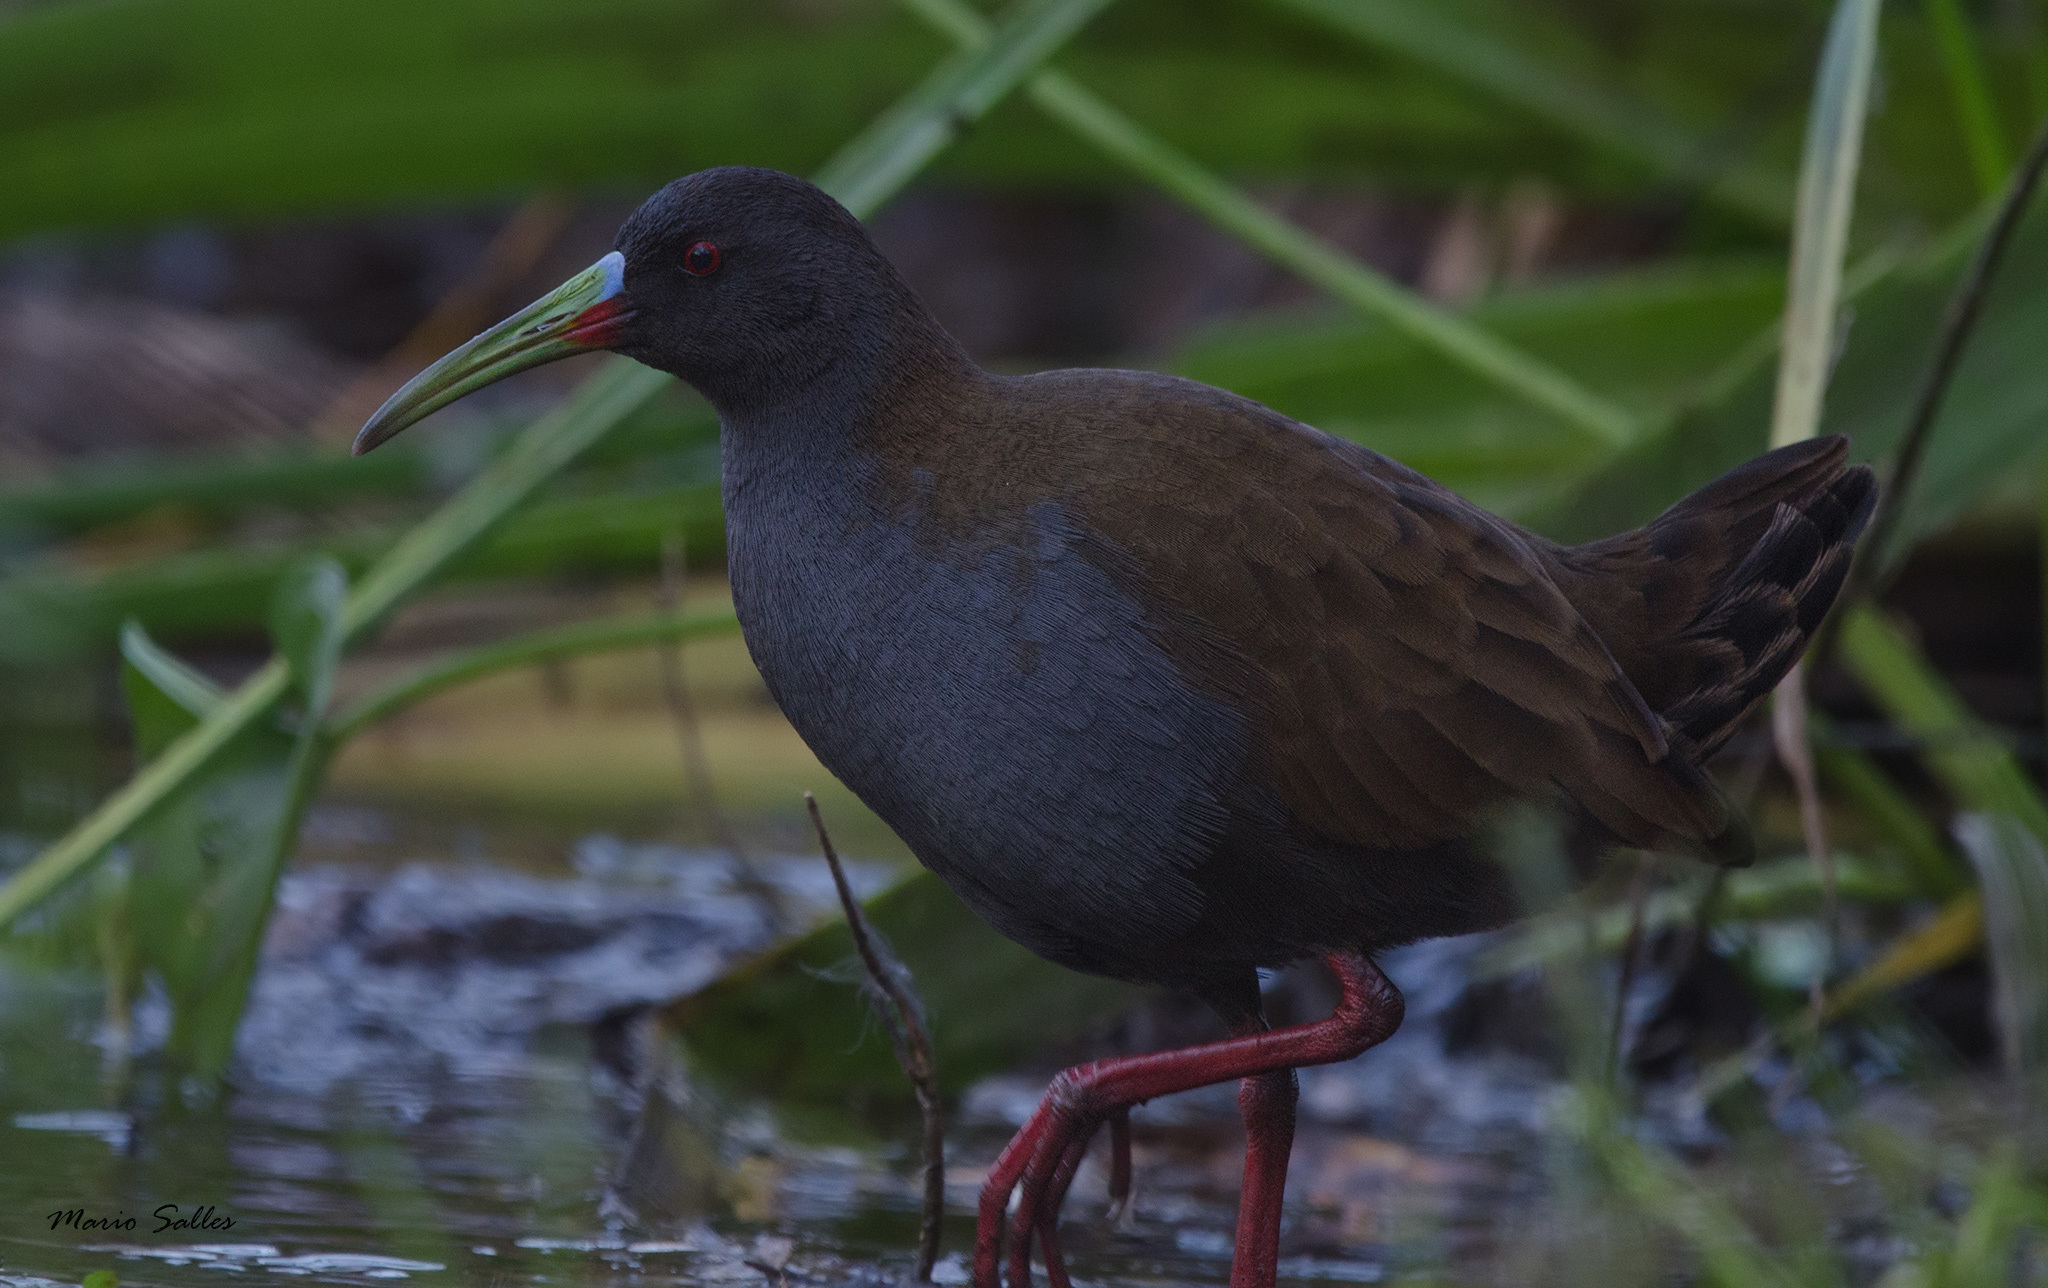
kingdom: Animalia
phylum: Chordata
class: Aves
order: Gruiformes
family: Rallidae
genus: Pardirallus
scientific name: Pardirallus sanguinolentus
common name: Plumbeous rail
